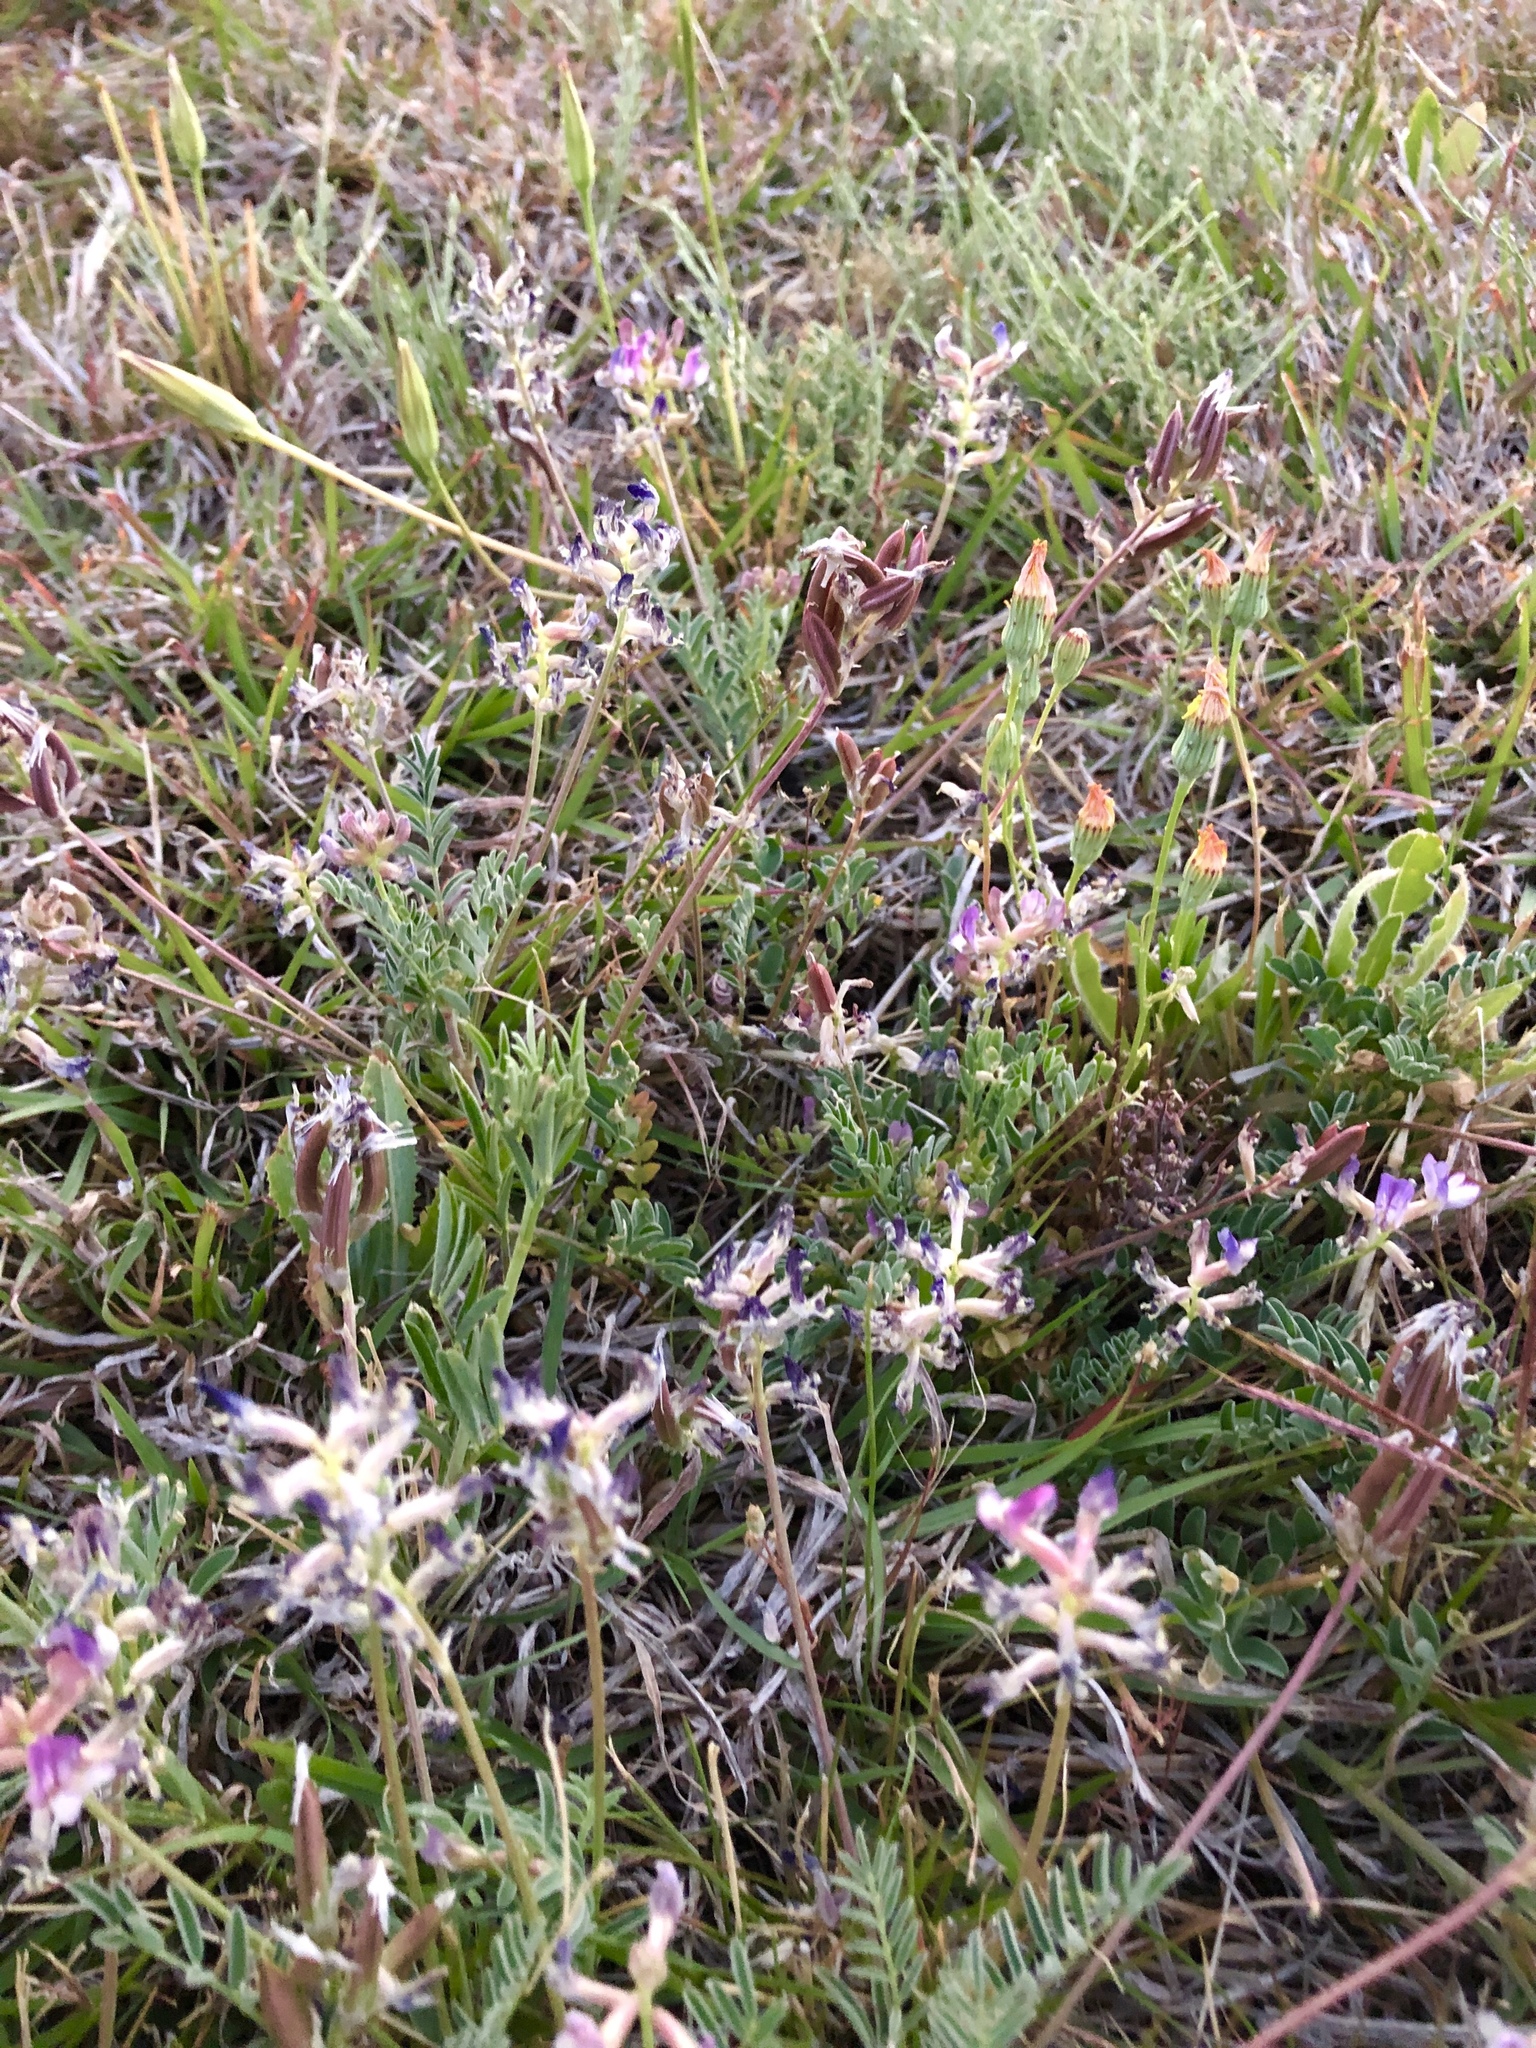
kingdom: Plantae
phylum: Tracheophyta
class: Magnoliopsida
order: Fabales
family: Fabaceae
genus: Astragalus
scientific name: Astragalus nothoxys
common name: Beaked milk-vetch
